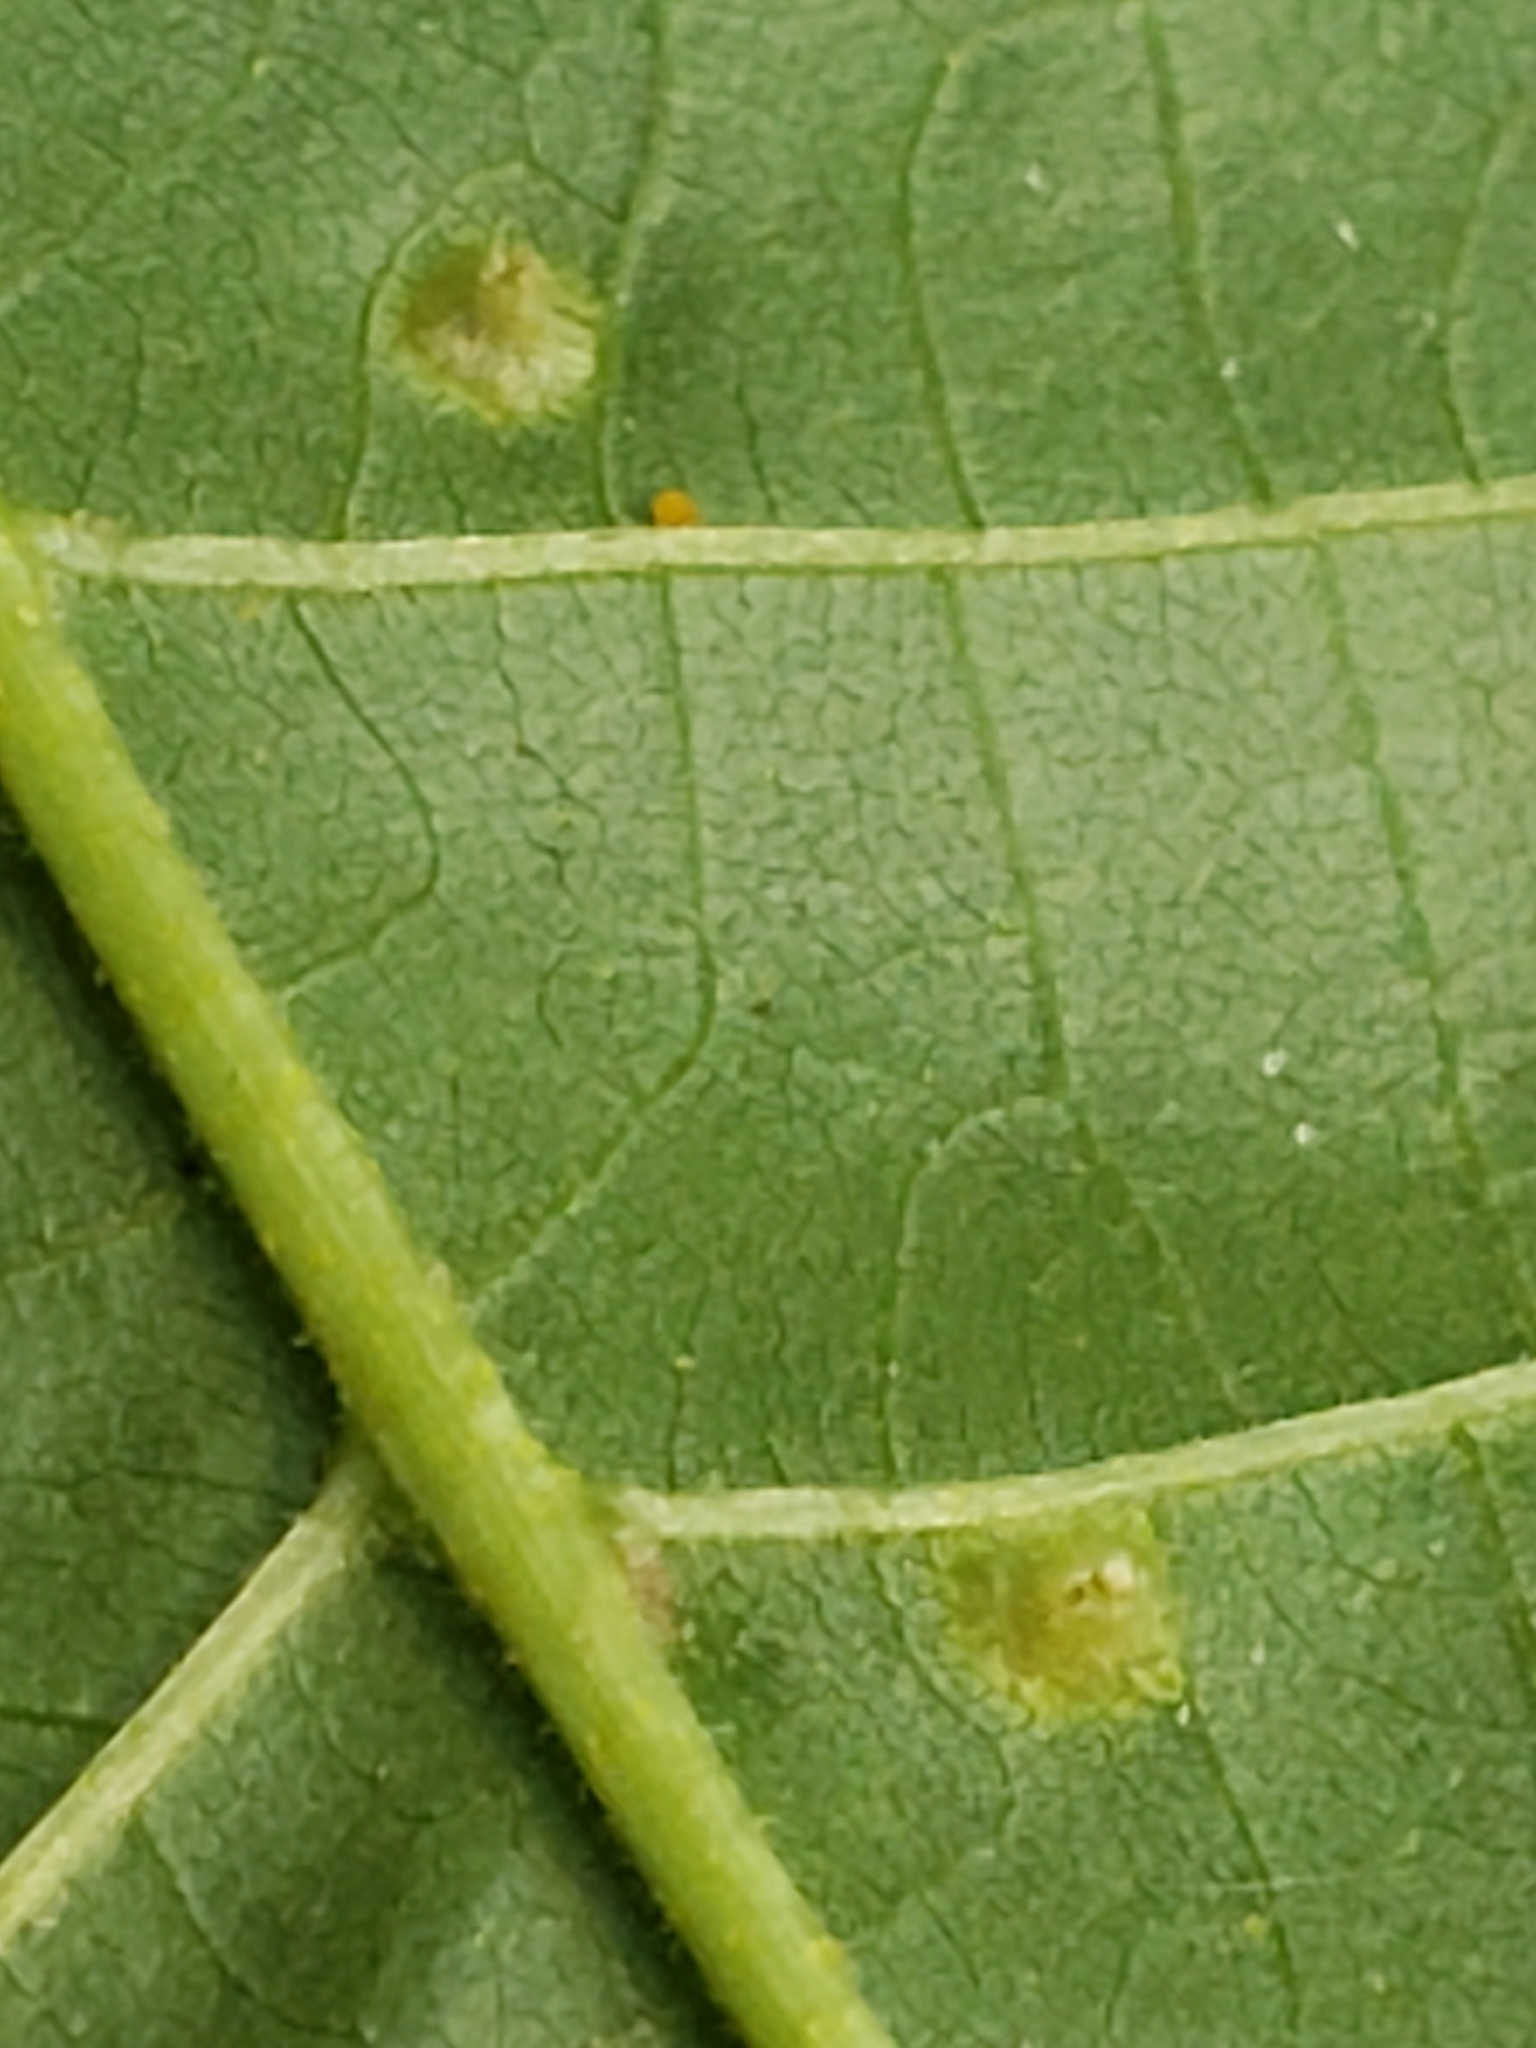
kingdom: Animalia
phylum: Arthropoda
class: Insecta
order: Hemiptera
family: Phylloxeridae
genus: Phylloxera
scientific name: Phylloxera caryae-semen
